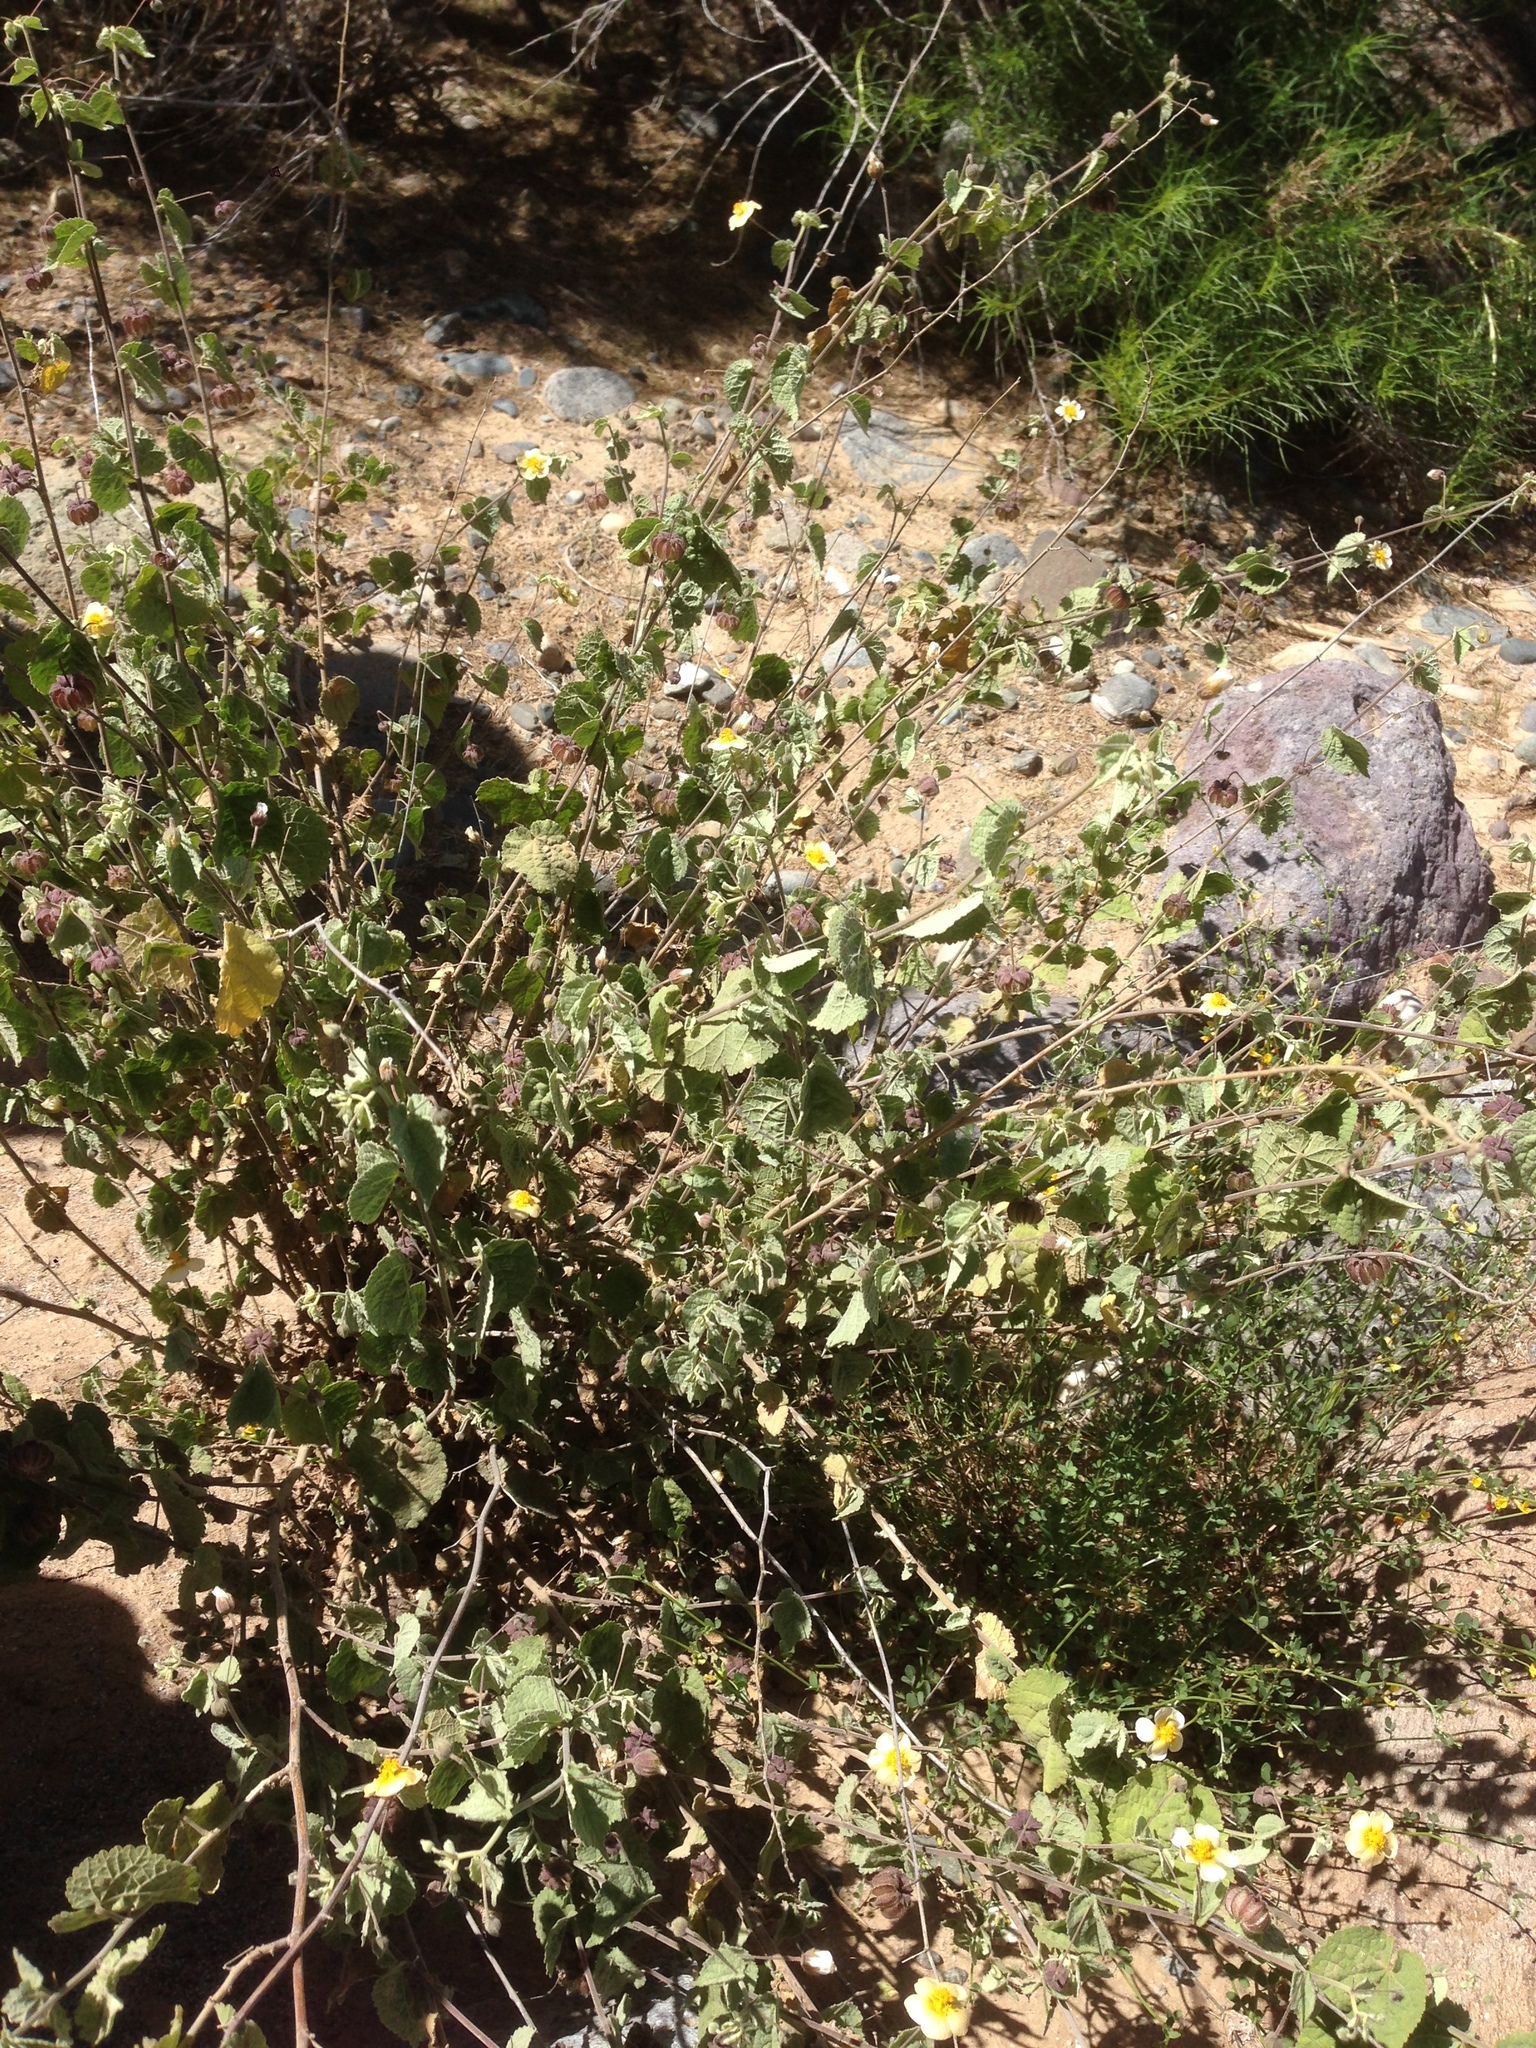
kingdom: Plantae
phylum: Tracheophyta
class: Magnoliopsida
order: Malvales
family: Malvaceae
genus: Herissantia
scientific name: Herissantia crispa
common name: Bladdermallow
